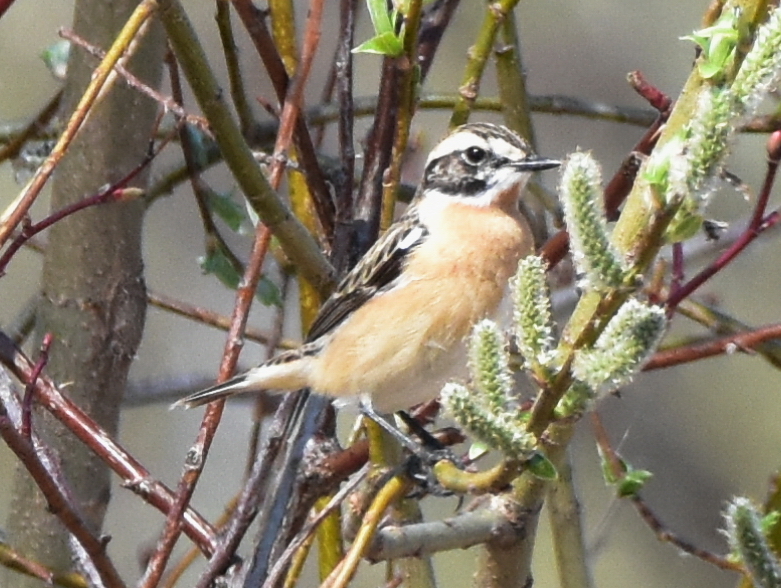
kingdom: Animalia
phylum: Chordata
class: Aves
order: Passeriformes
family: Muscicapidae
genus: Saxicola
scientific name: Saxicola rubetra
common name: Whinchat
